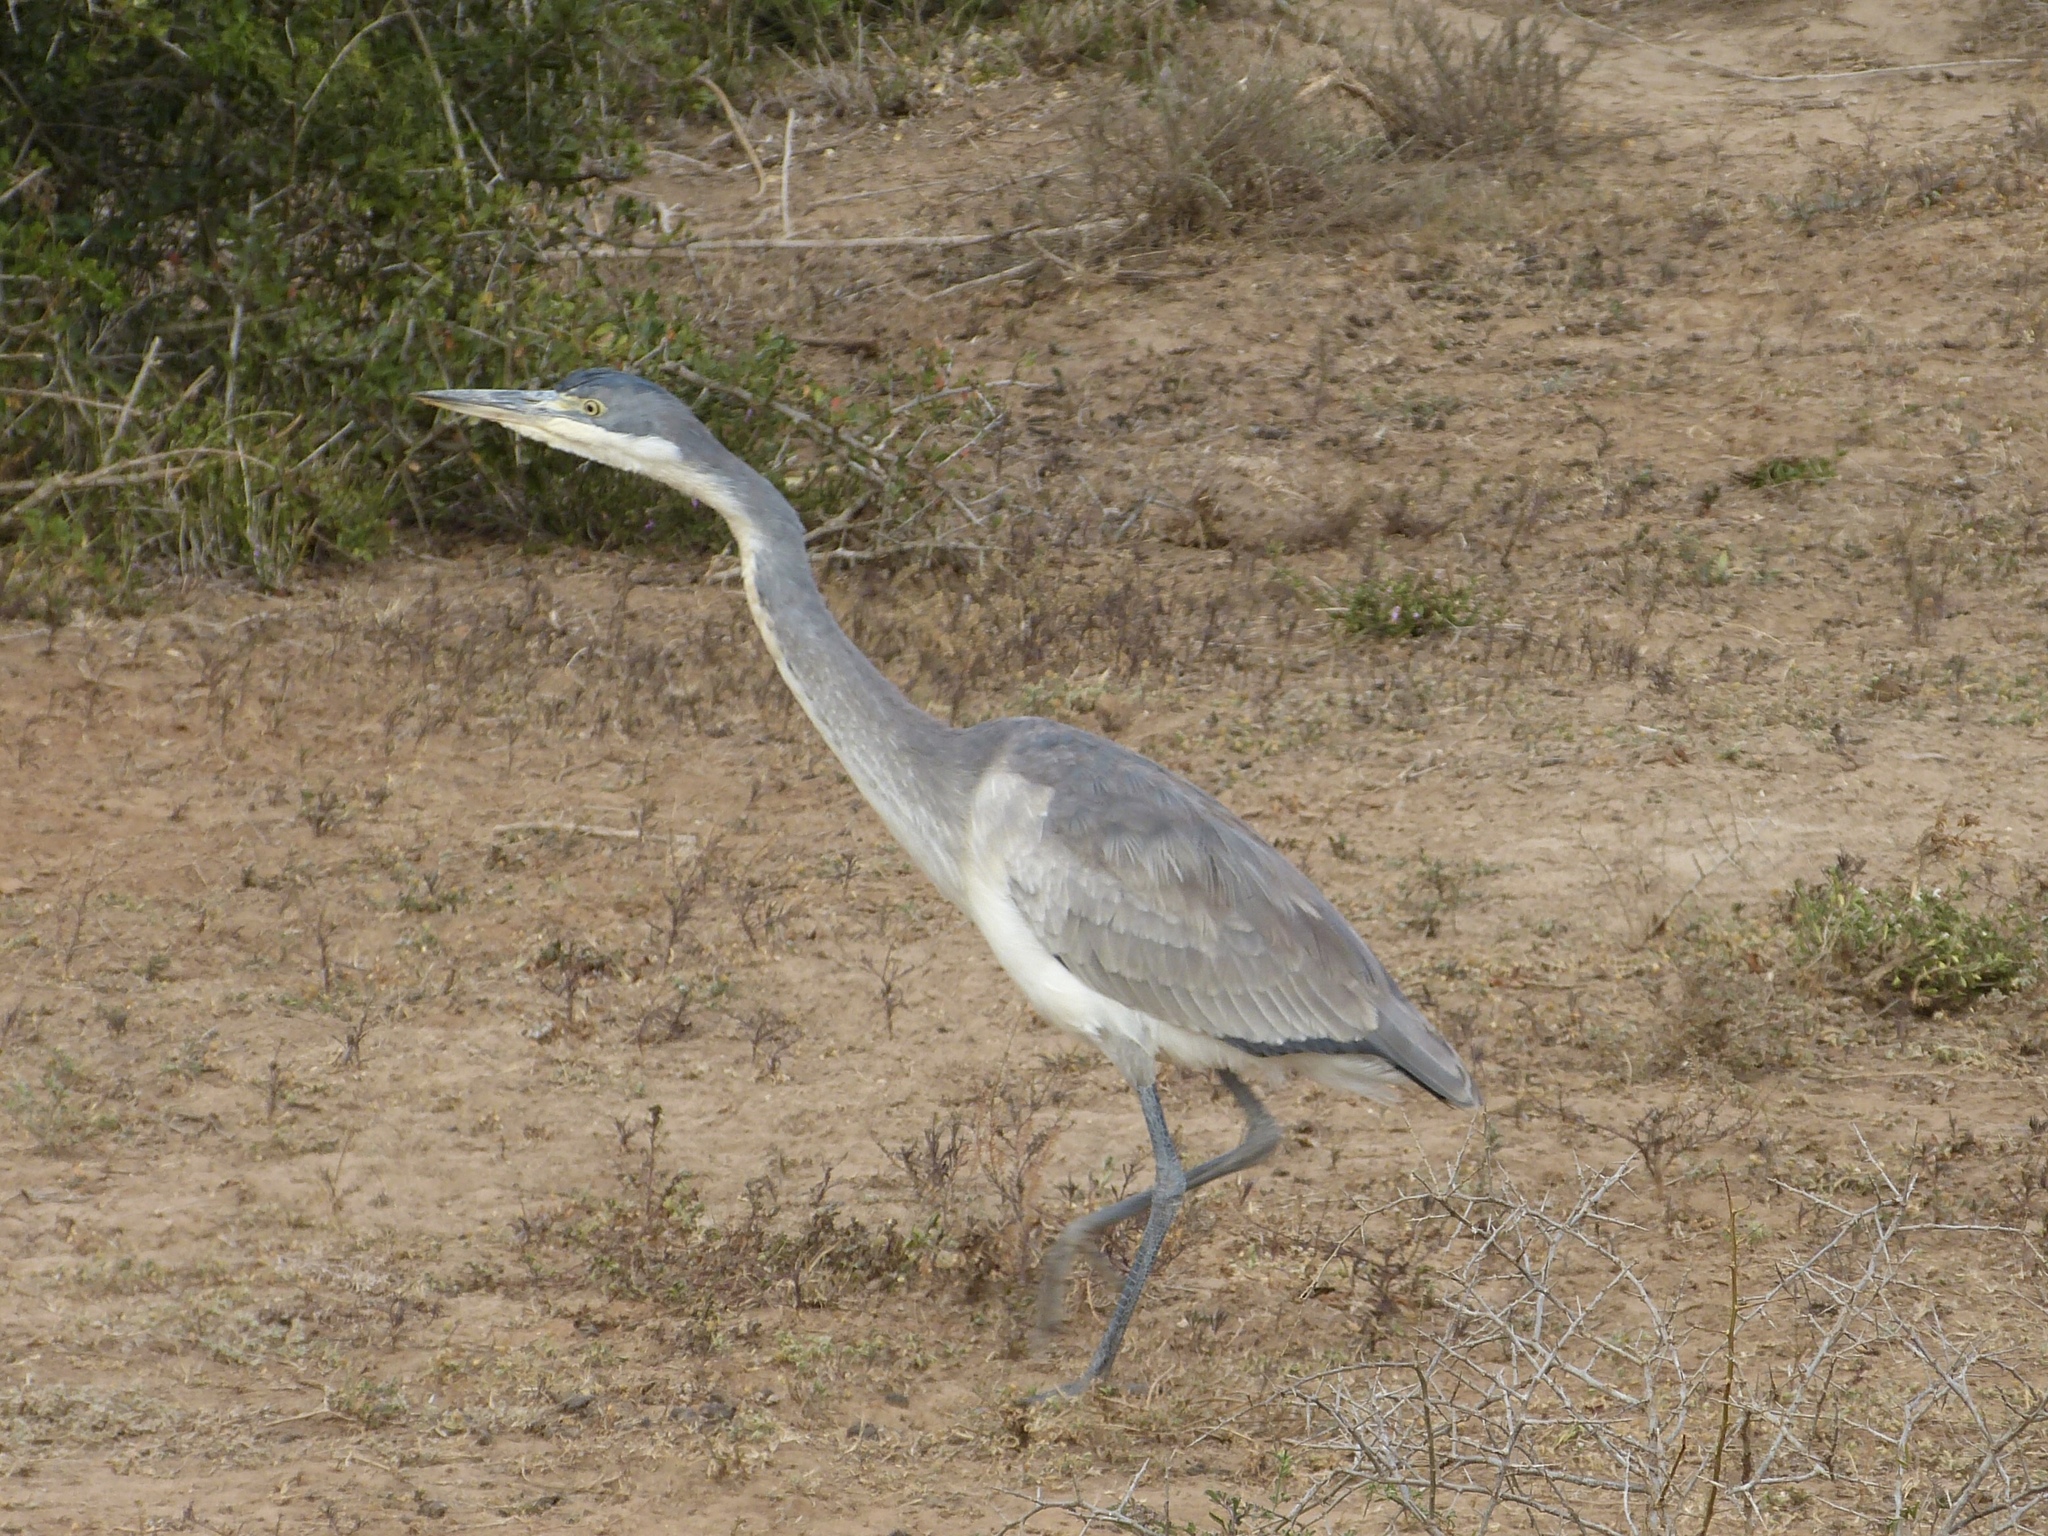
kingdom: Animalia
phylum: Chordata
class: Aves
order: Pelecaniformes
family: Ardeidae
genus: Ardea
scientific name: Ardea melanocephala
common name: Black-headed heron
